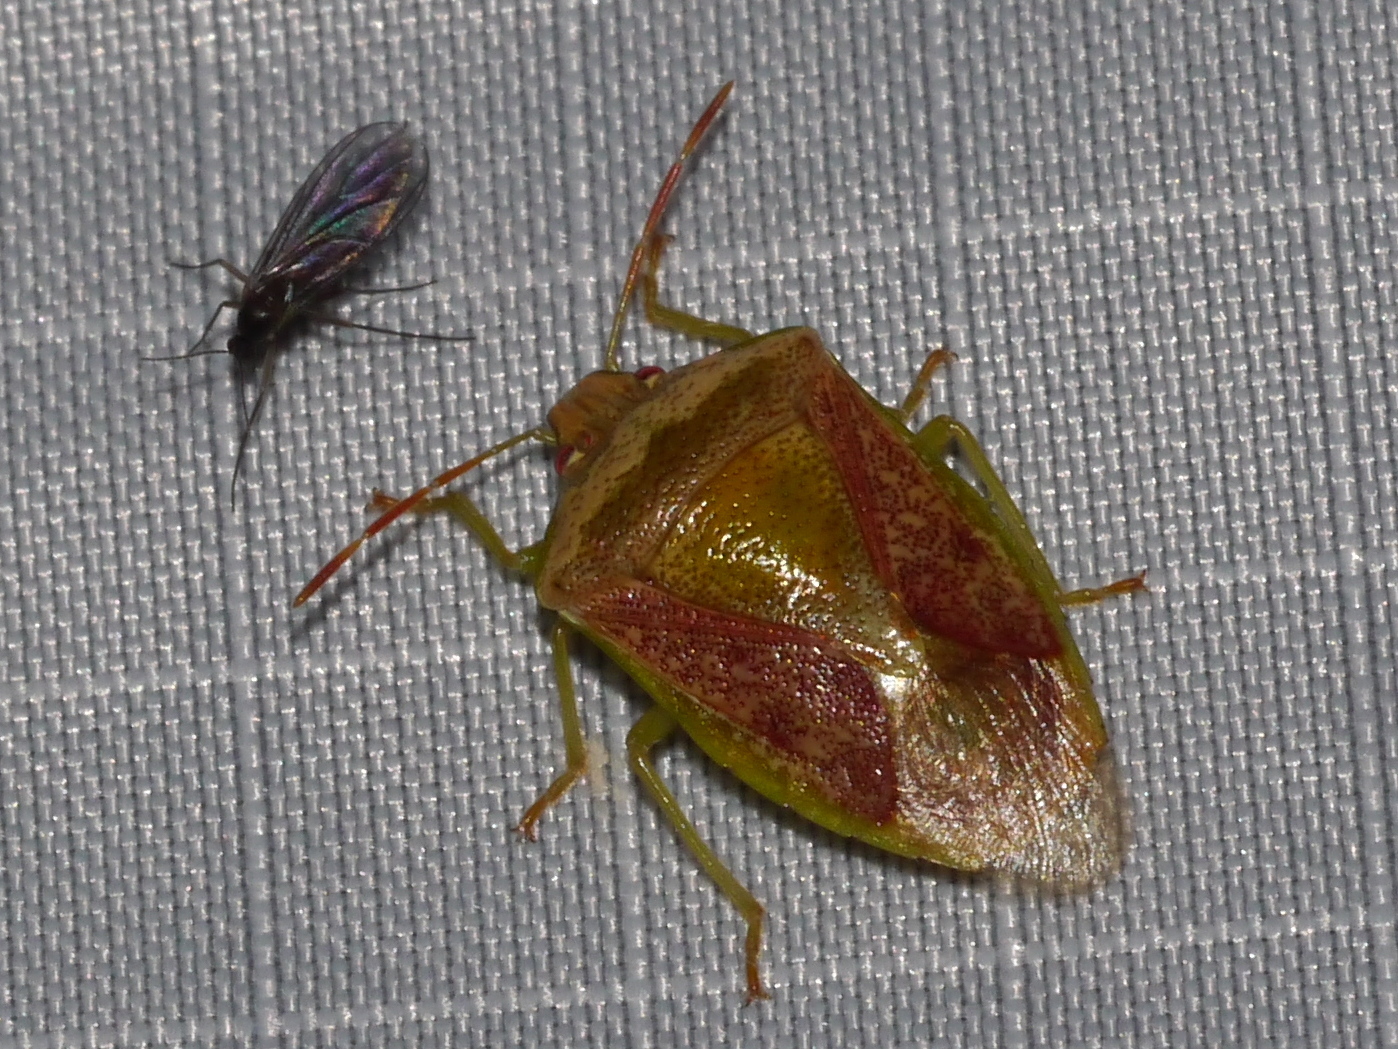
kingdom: Animalia
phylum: Arthropoda
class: Insecta
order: Hemiptera
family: Pentatomidae
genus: Banasa
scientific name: Banasa subcarnea
